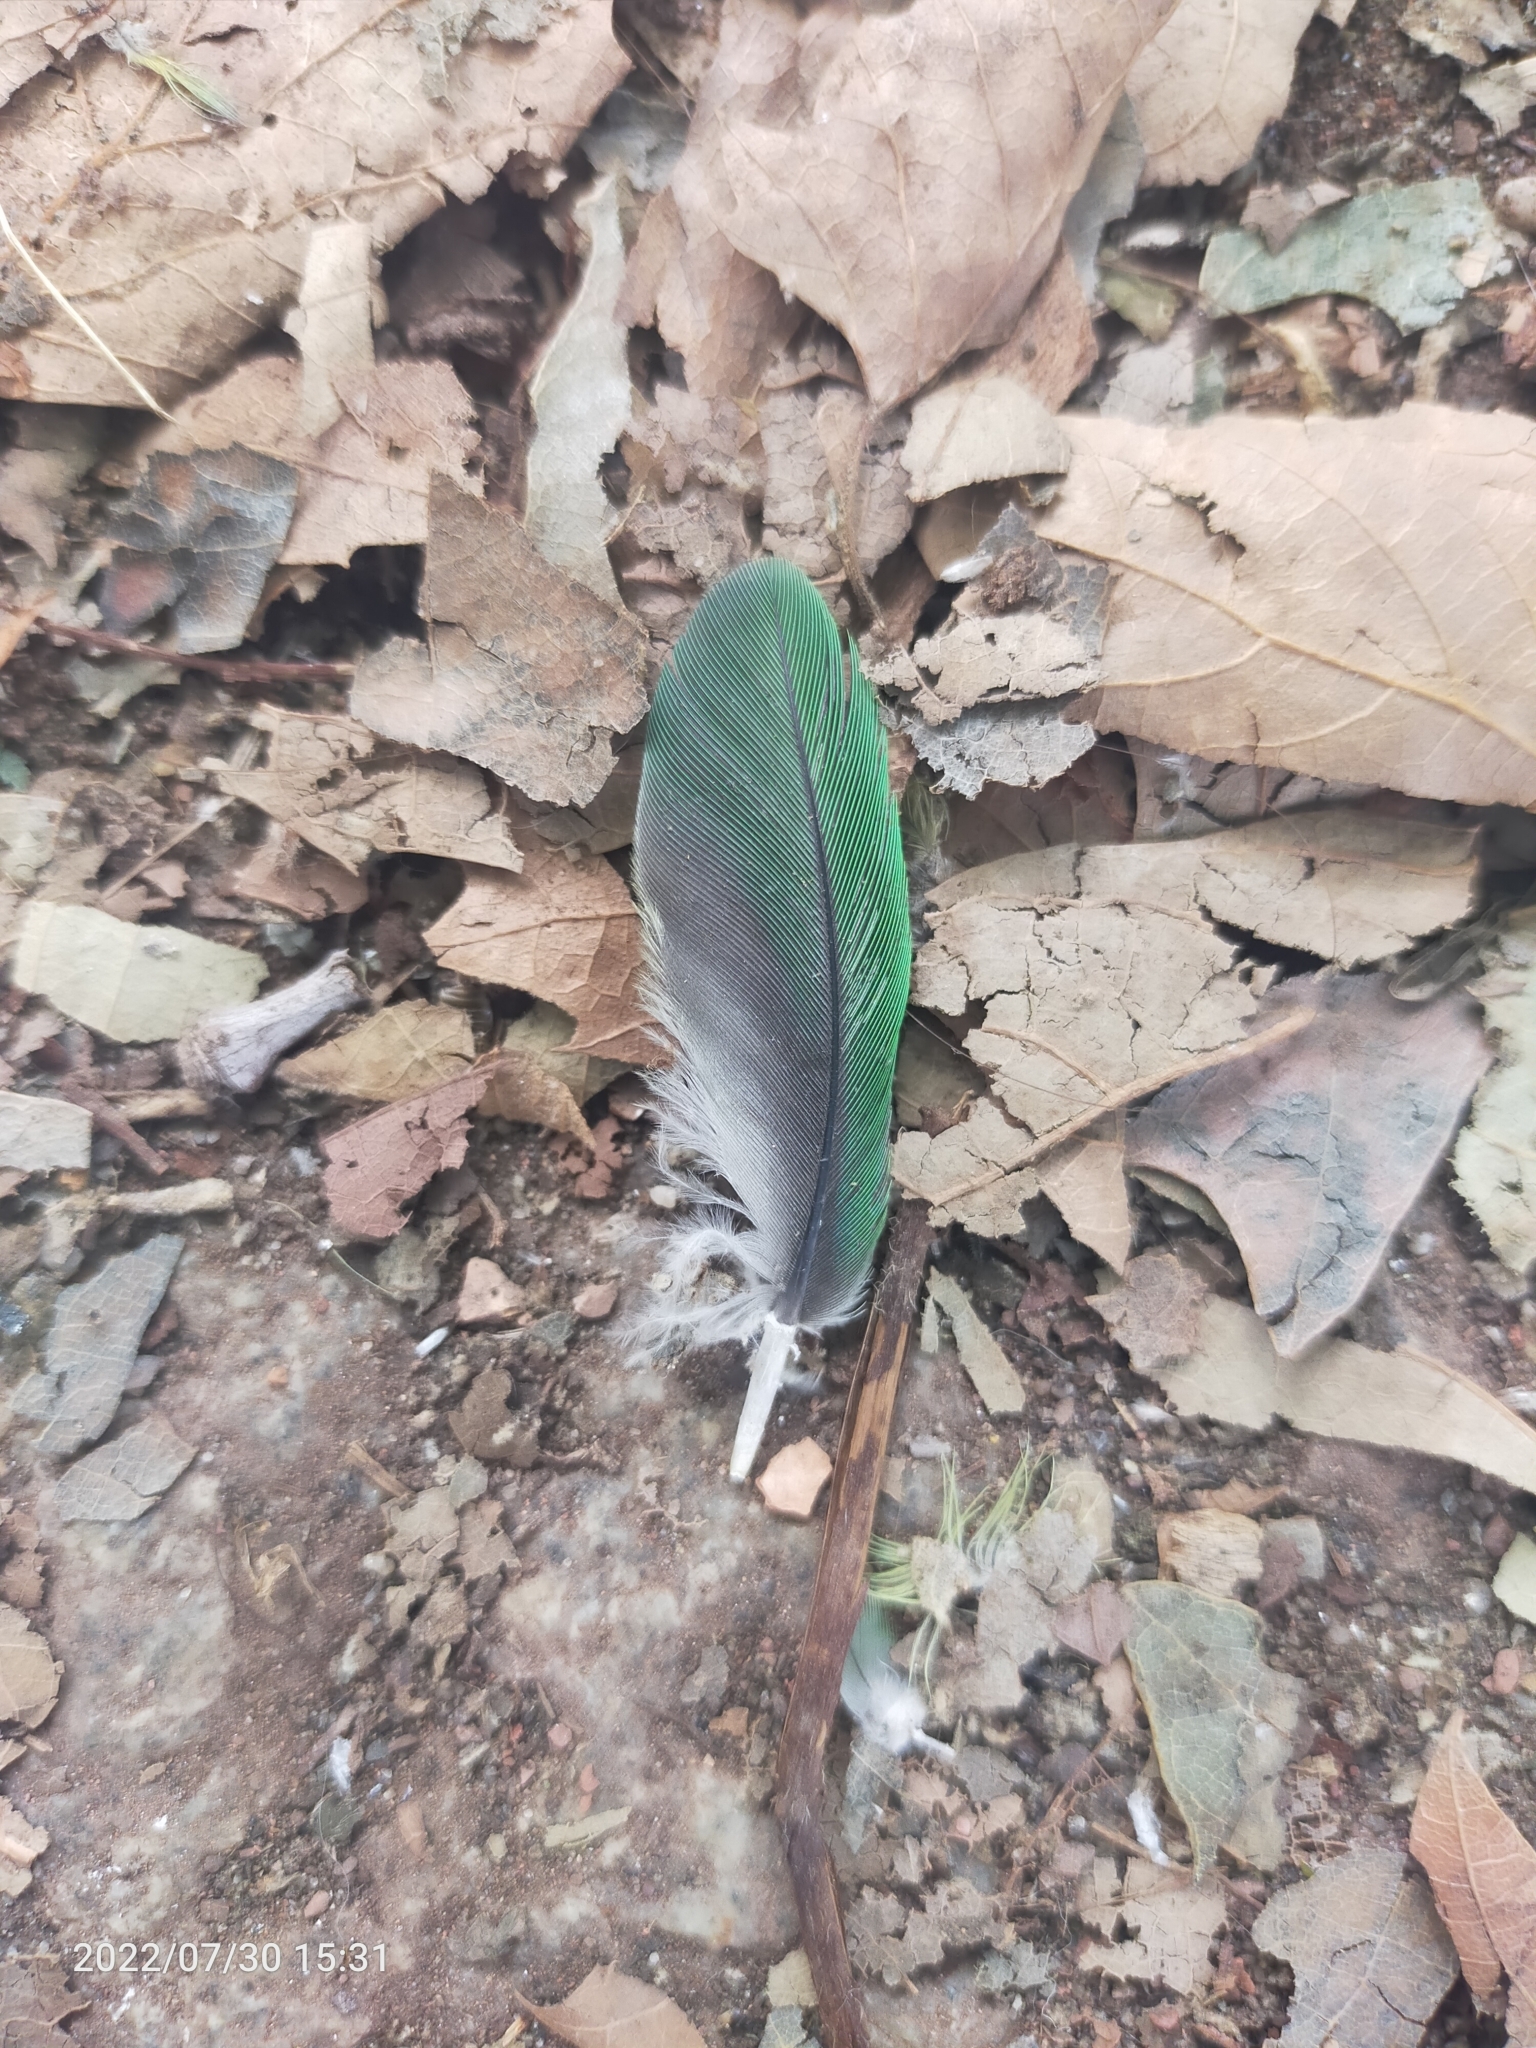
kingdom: Animalia
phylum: Chordata
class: Aves
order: Psittaciformes
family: Psittacidae
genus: Psittacula
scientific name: Psittacula
